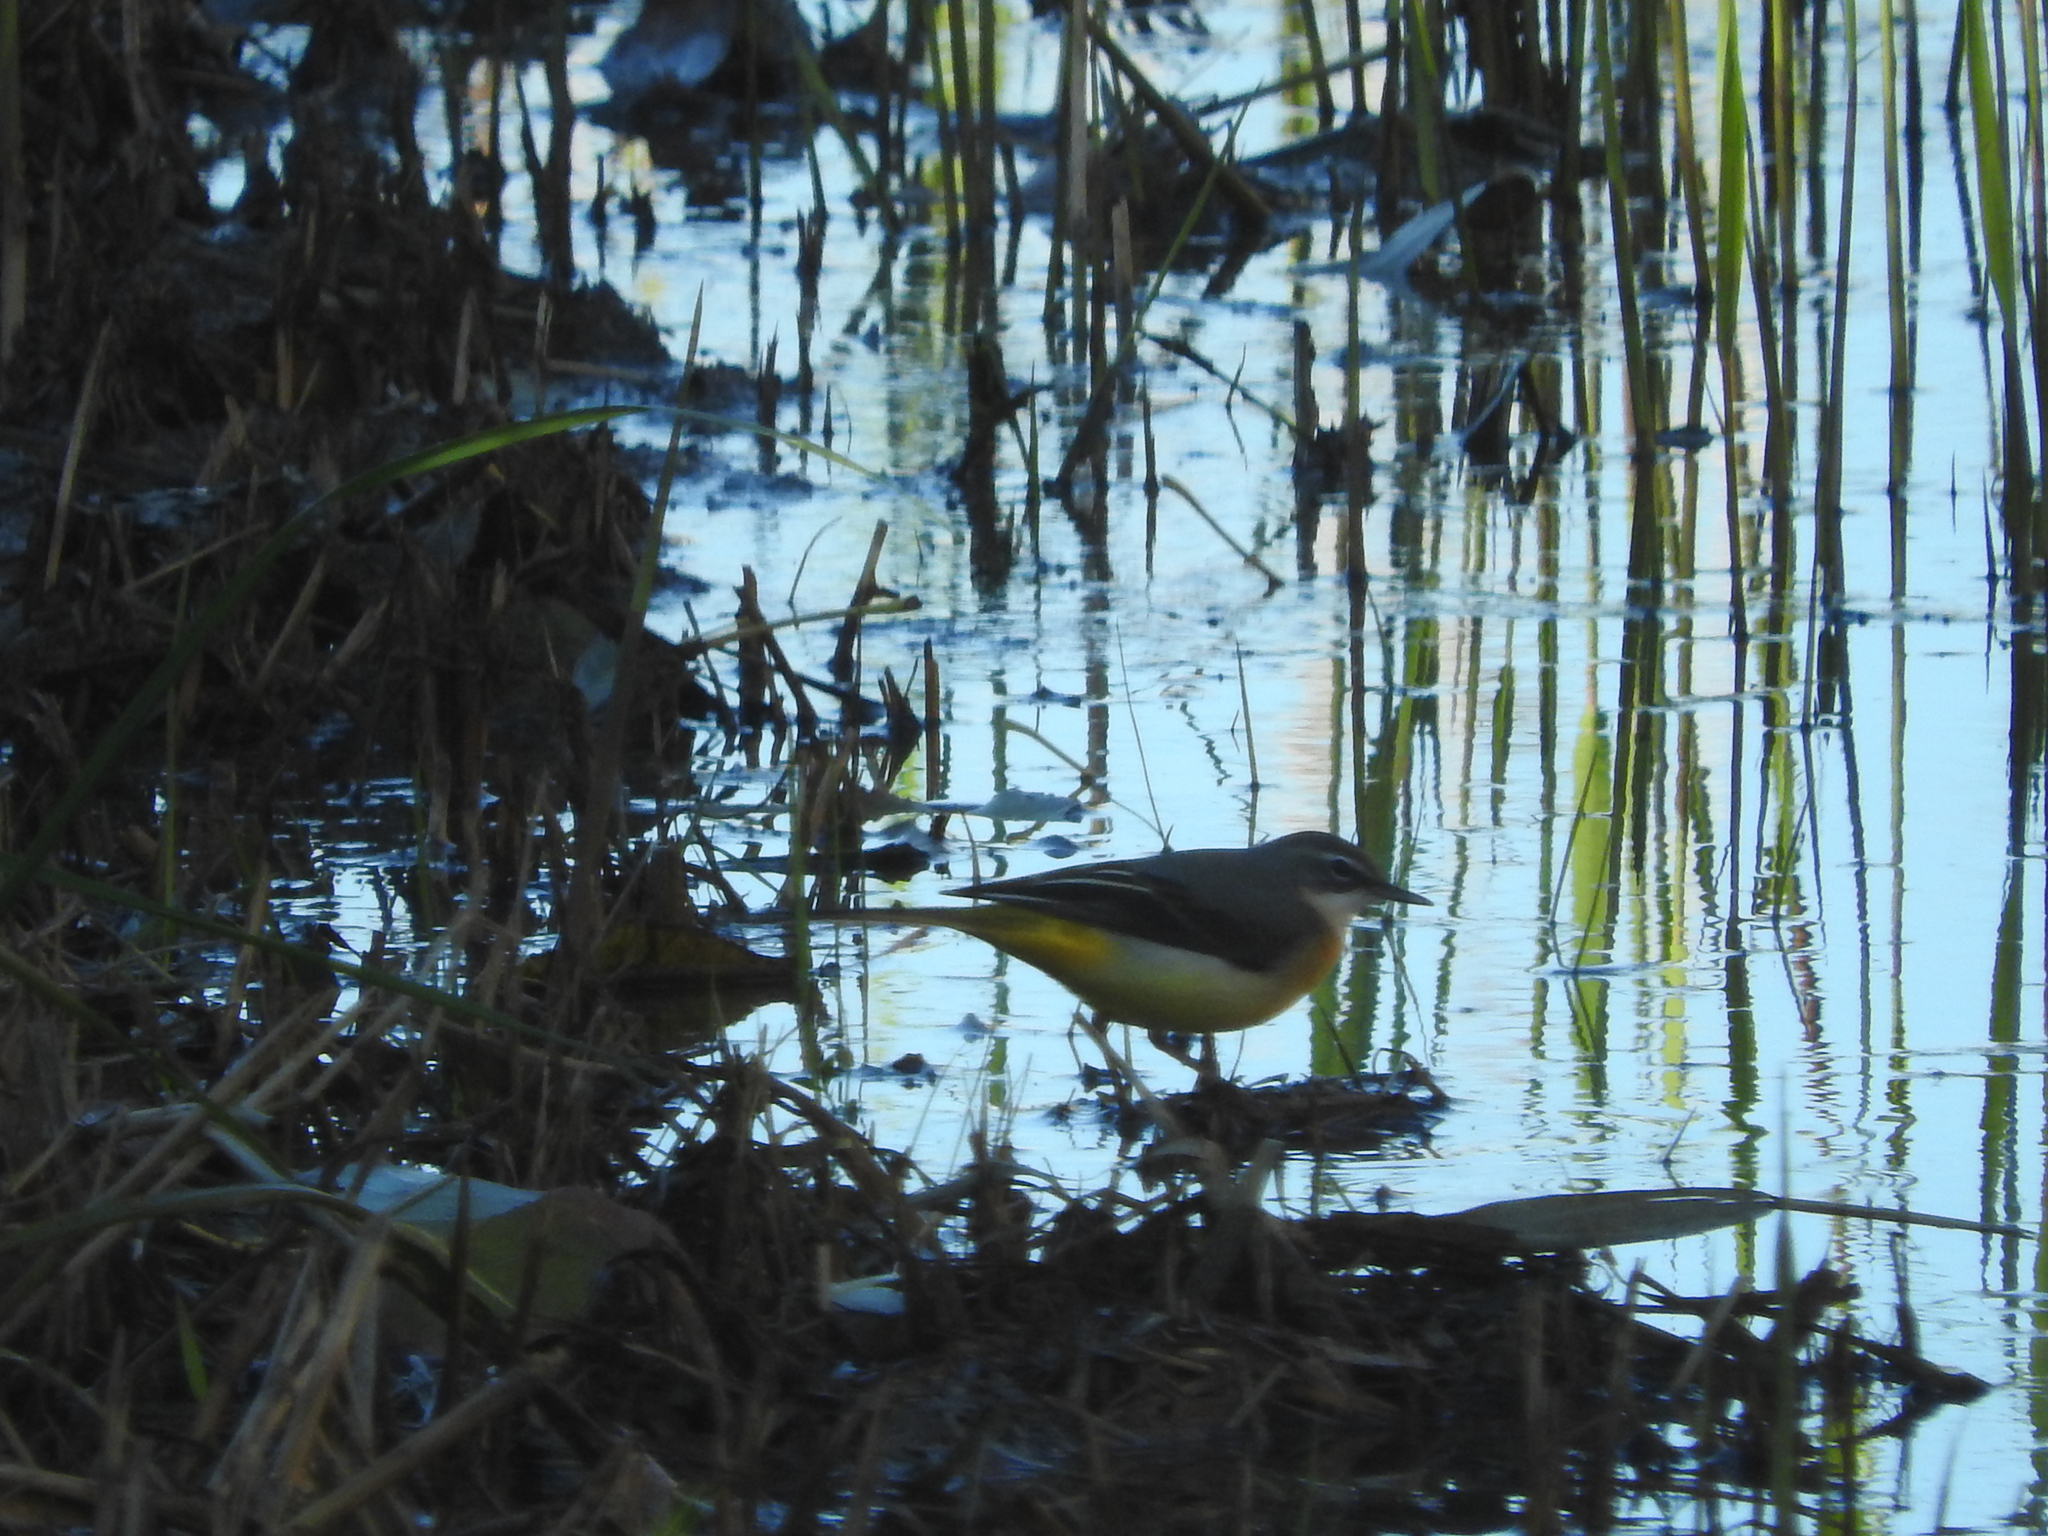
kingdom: Animalia
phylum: Chordata
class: Aves
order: Passeriformes
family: Motacillidae
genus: Motacilla
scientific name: Motacilla cinerea
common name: Grey wagtail
